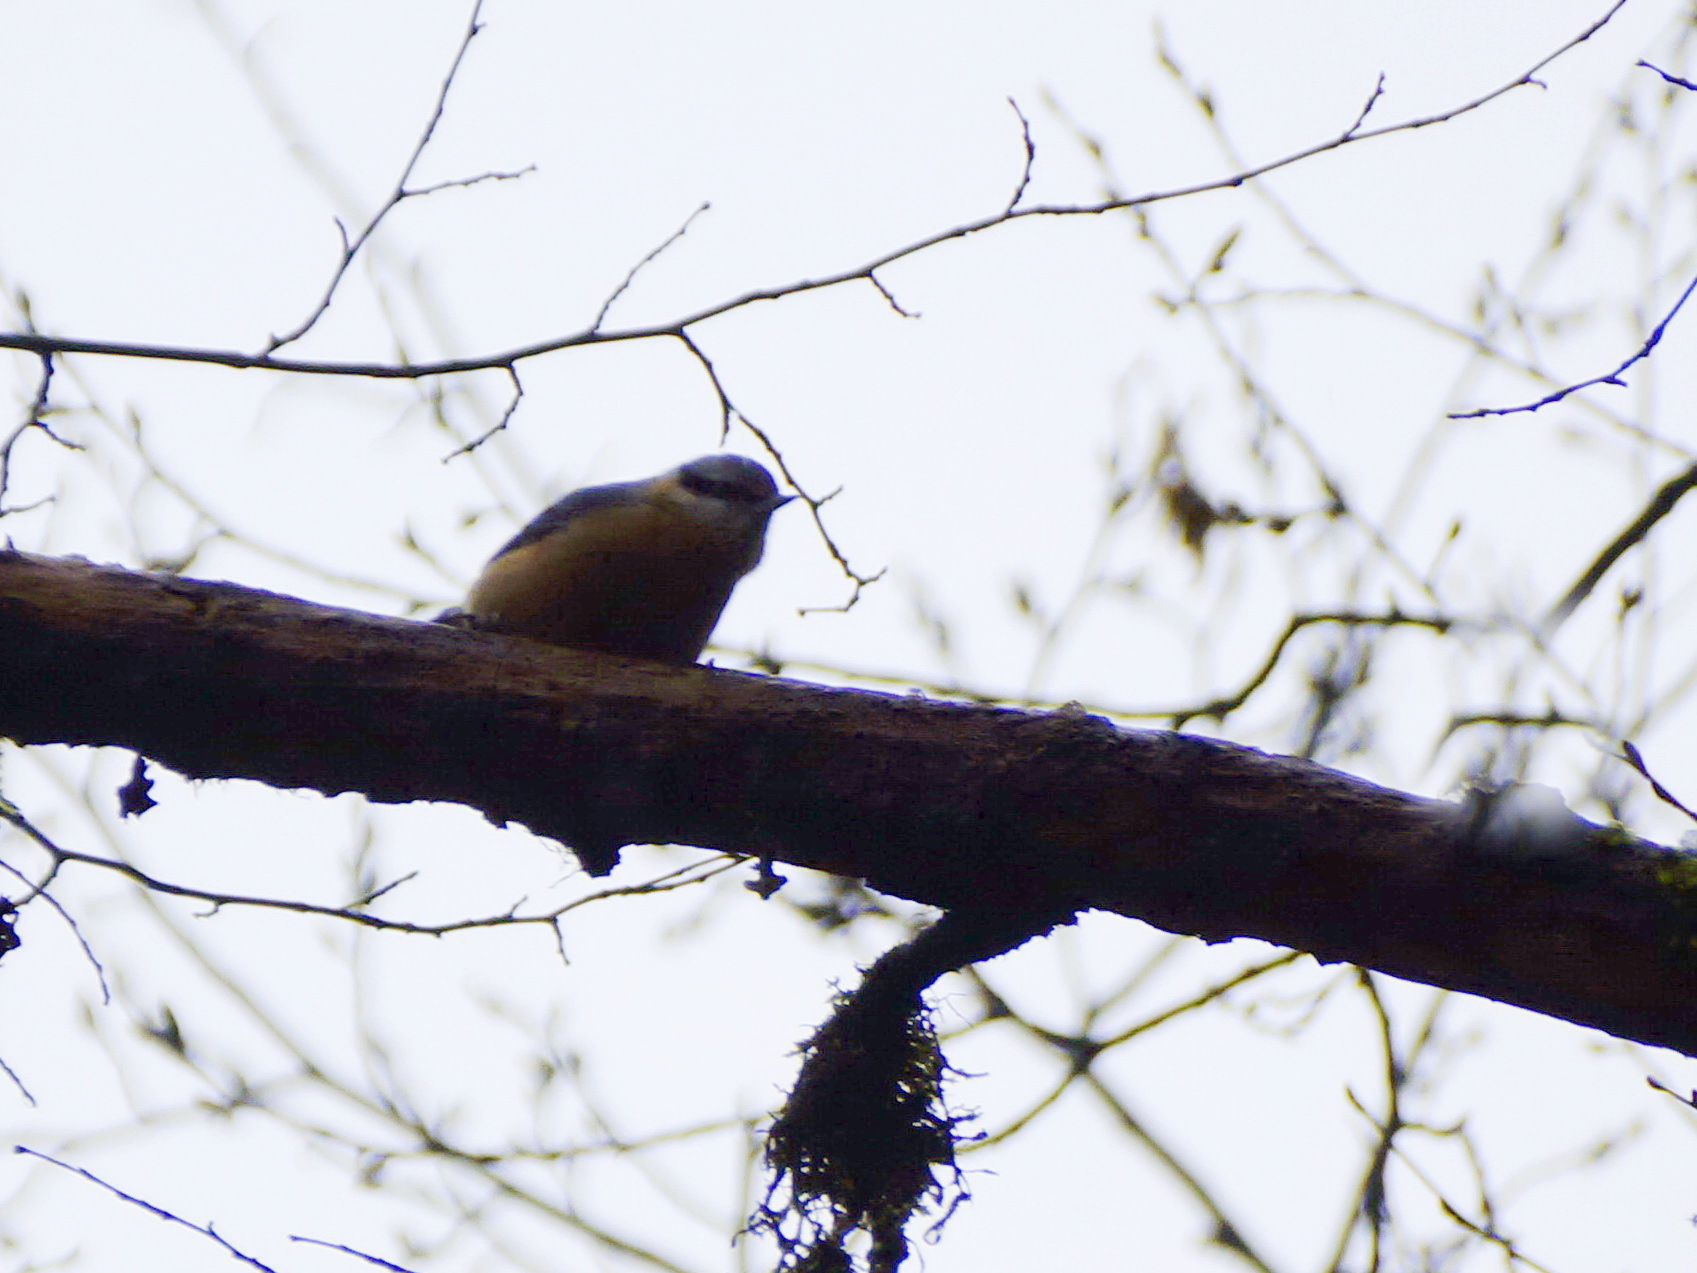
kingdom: Animalia
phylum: Chordata
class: Aves
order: Passeriformes
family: Sittidae
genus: Sitta
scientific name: Sitta europaea
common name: Eurasian nuthatch
